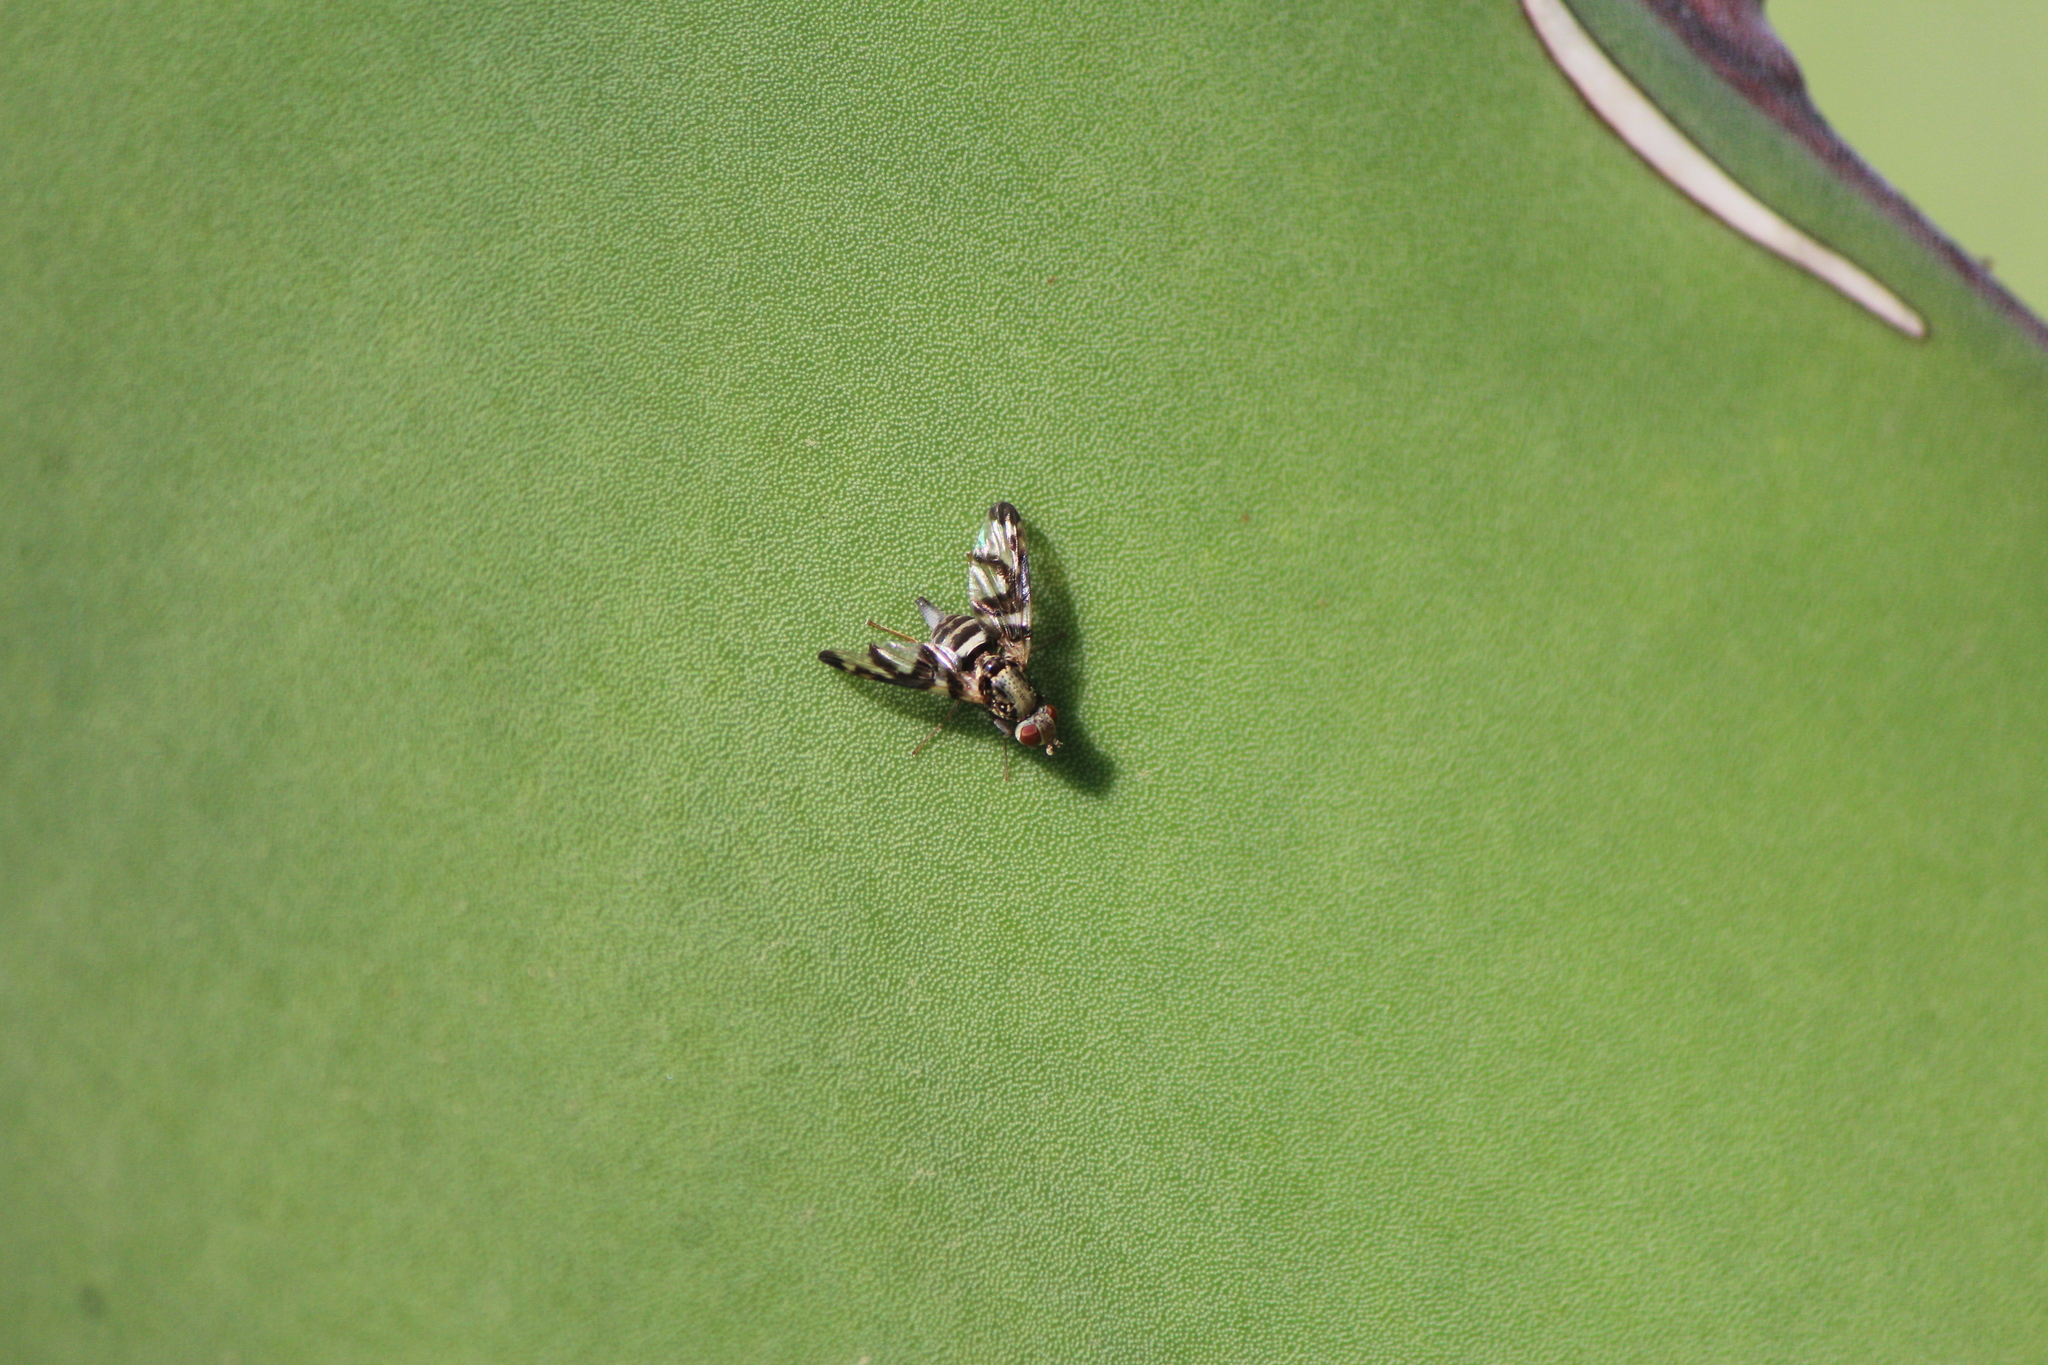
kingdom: Animalia
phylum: Arthropoda
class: Insecta
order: Diptera
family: Ulidiidae
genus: Pseudodyscrasis
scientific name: Pseudodyscrasis scutellaris
